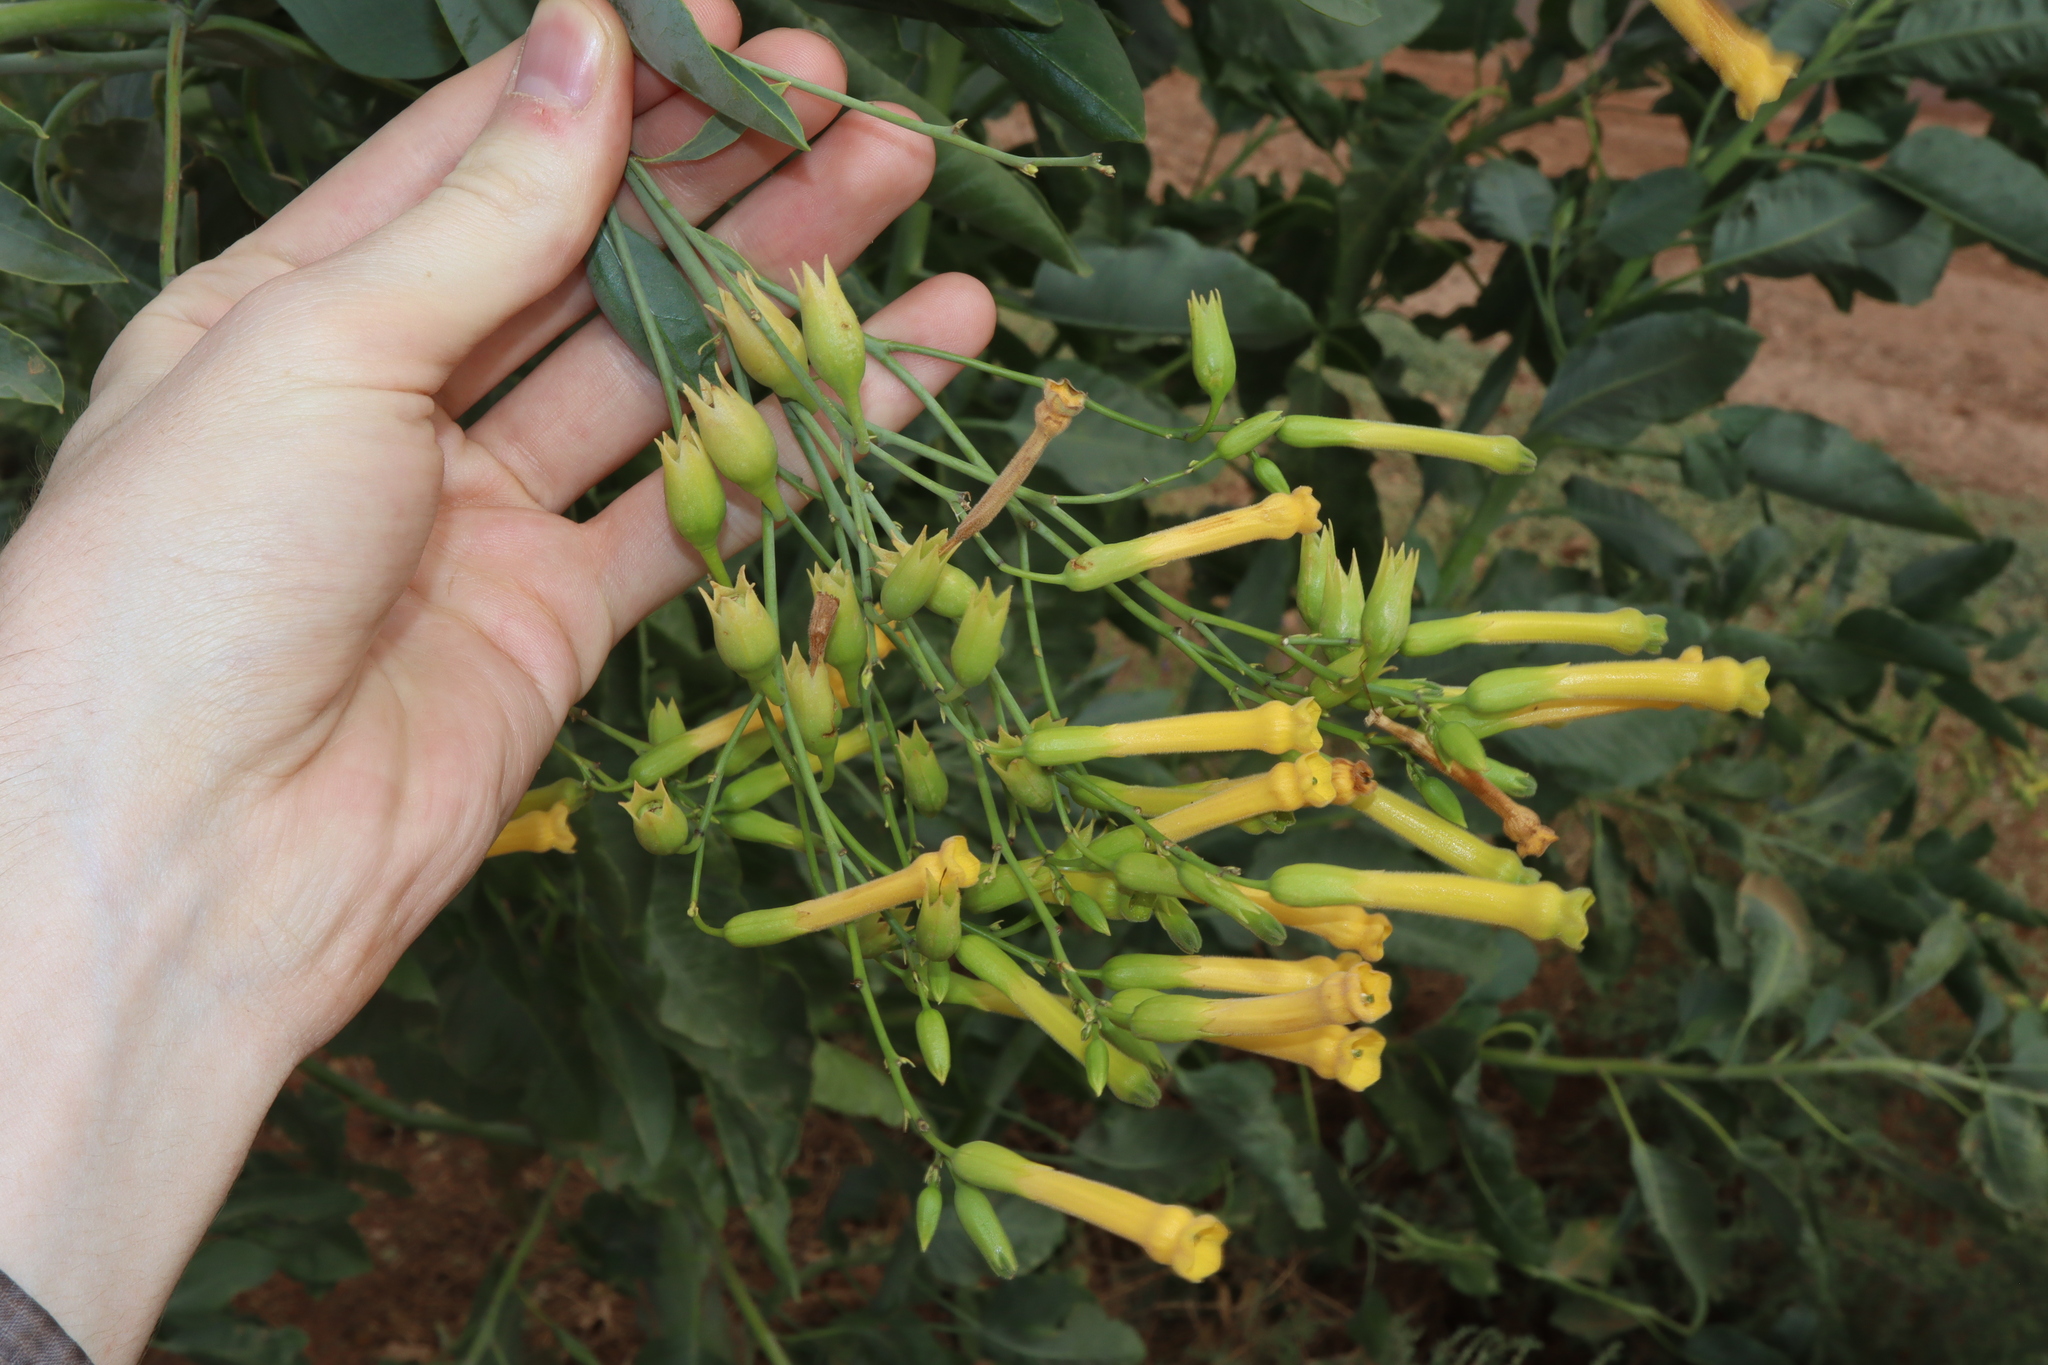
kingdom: Plantae
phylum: Tracheophyta
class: Magnoliopsida
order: Solanales
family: Solanaceae
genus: Nicotiana
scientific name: Nicotiana glauca
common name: Tree tobacco
